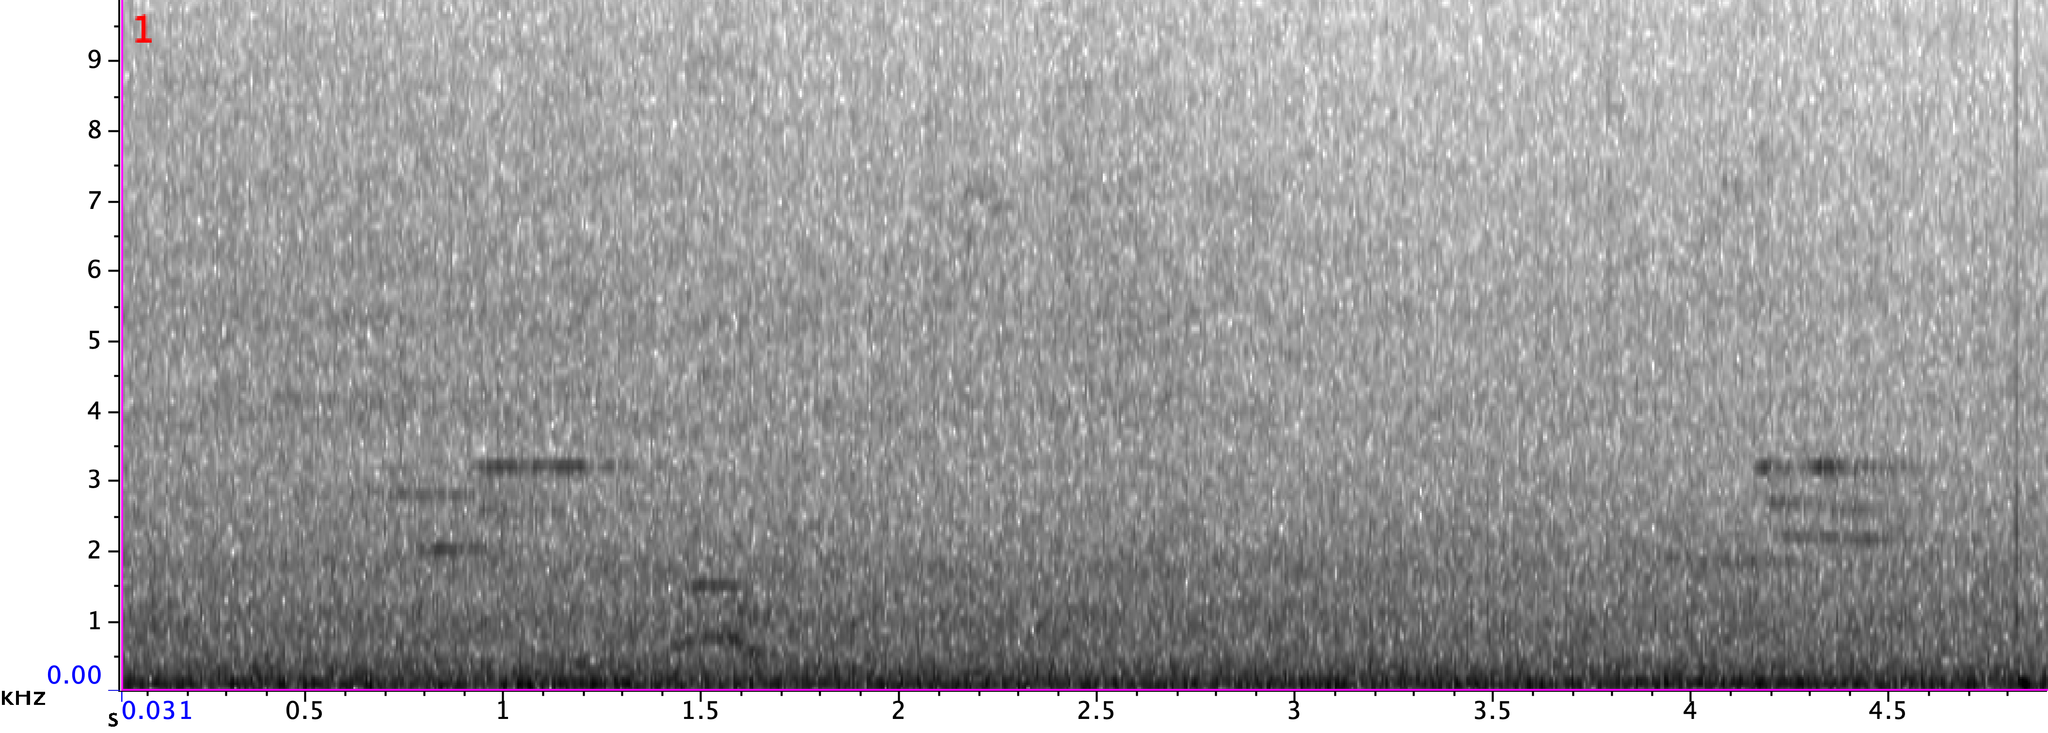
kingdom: Animalia
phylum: Chordata
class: Aves
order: Passeriformes
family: Turdidae
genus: Hylocichla
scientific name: Hylocichla mustelina
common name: Wood thrush
